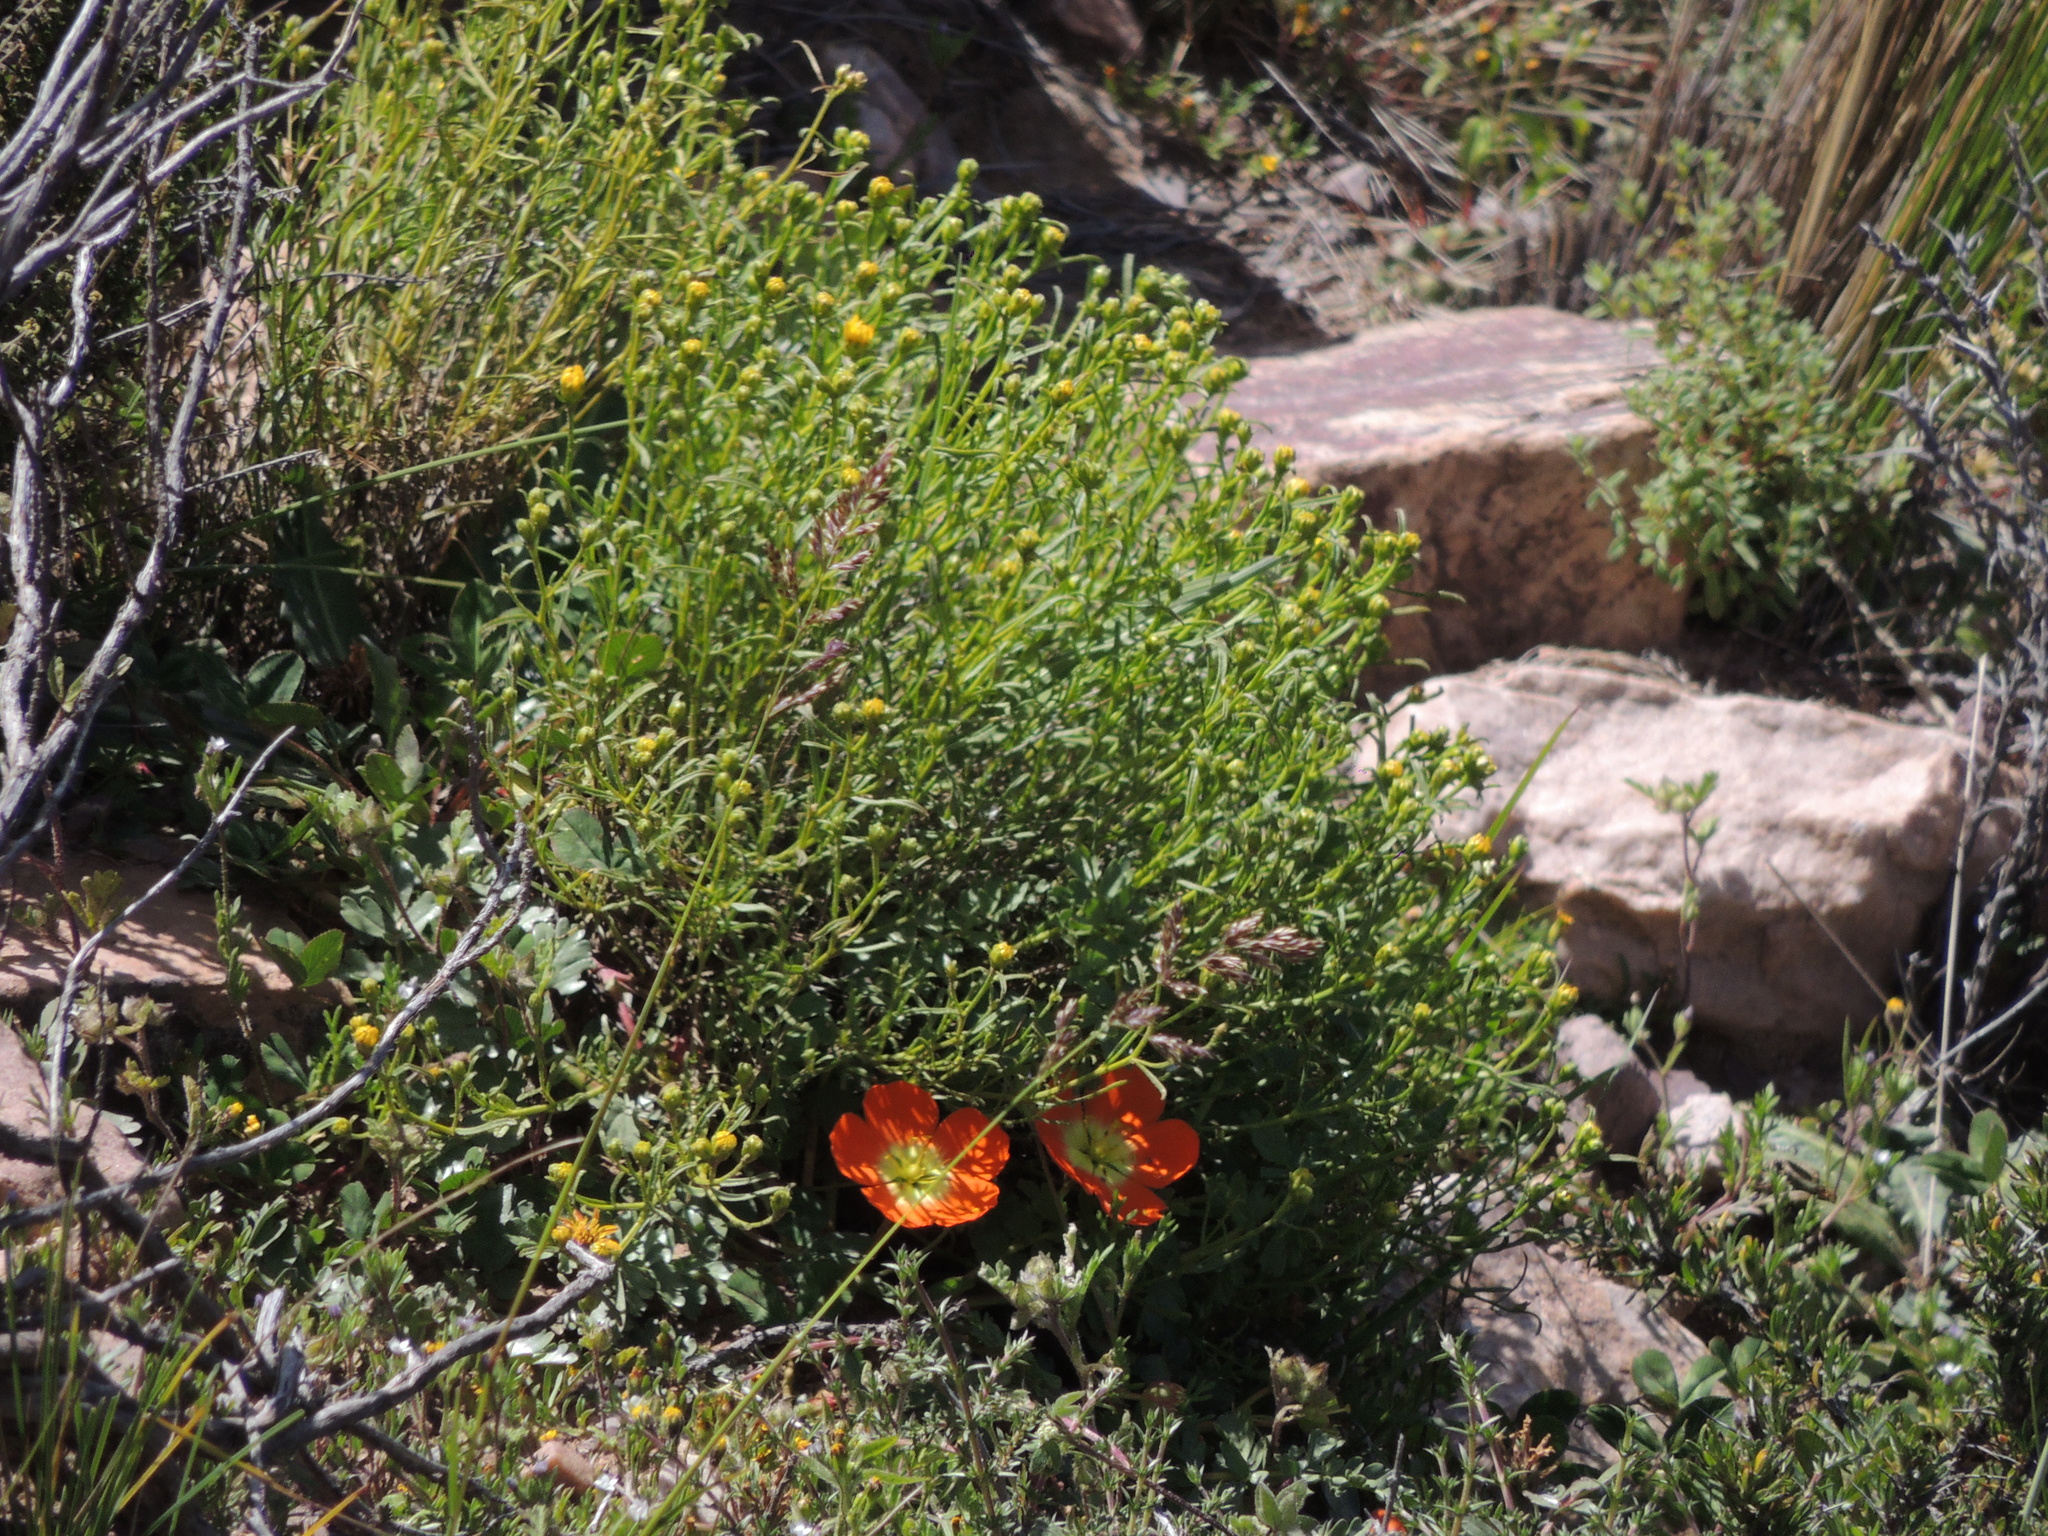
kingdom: Plantae
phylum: Tracheophyta
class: Magnoliopsida
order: Geraniales
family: Hypseocharitaceae
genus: Hypseocharis
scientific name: Hypseocharis pimpinellifolia
